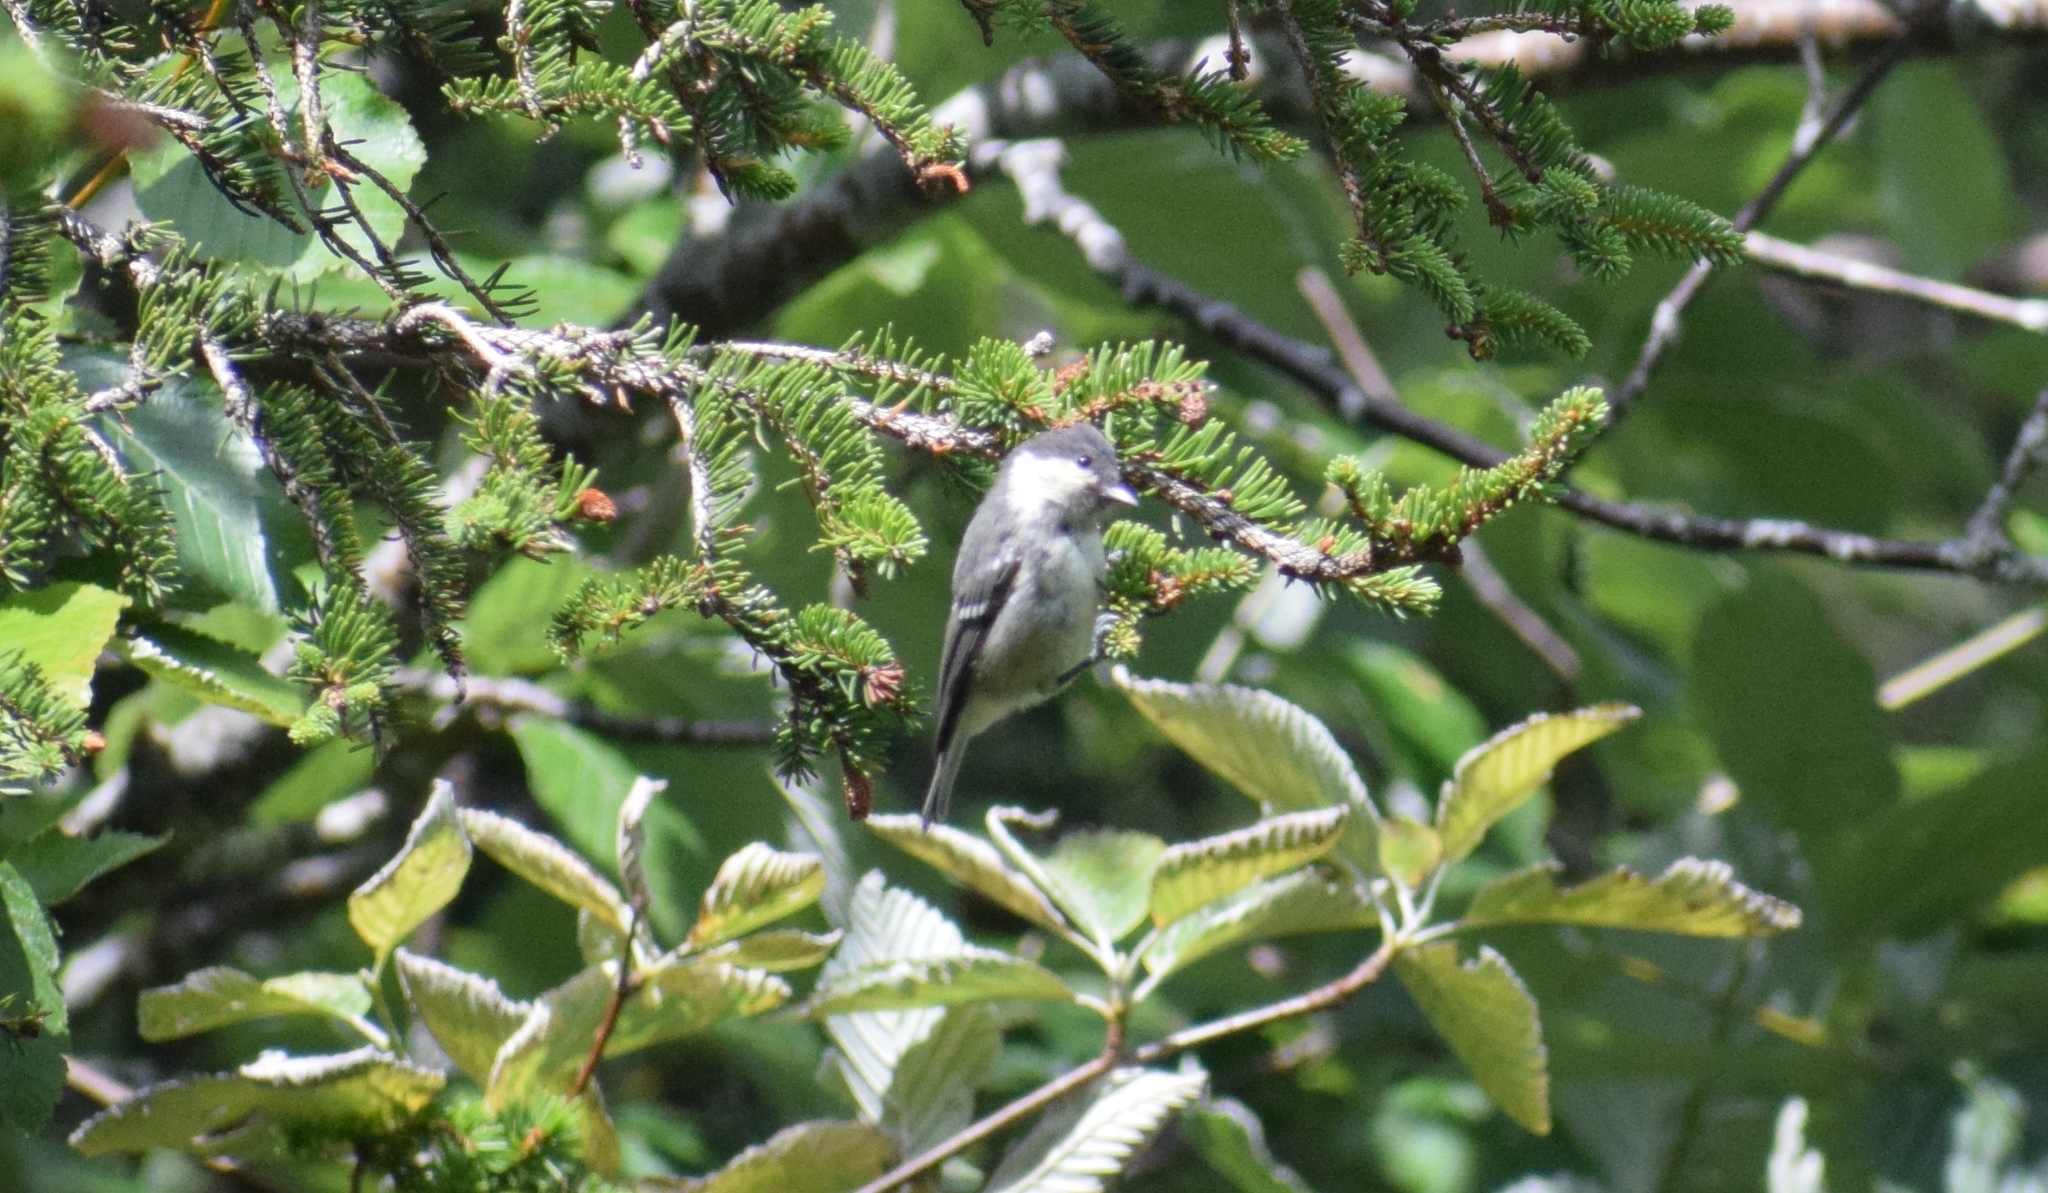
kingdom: Animalia
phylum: Chordata
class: Aves
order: Passeriformes
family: Paridae
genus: Periparus
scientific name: Periparus ater
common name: Coal tit
